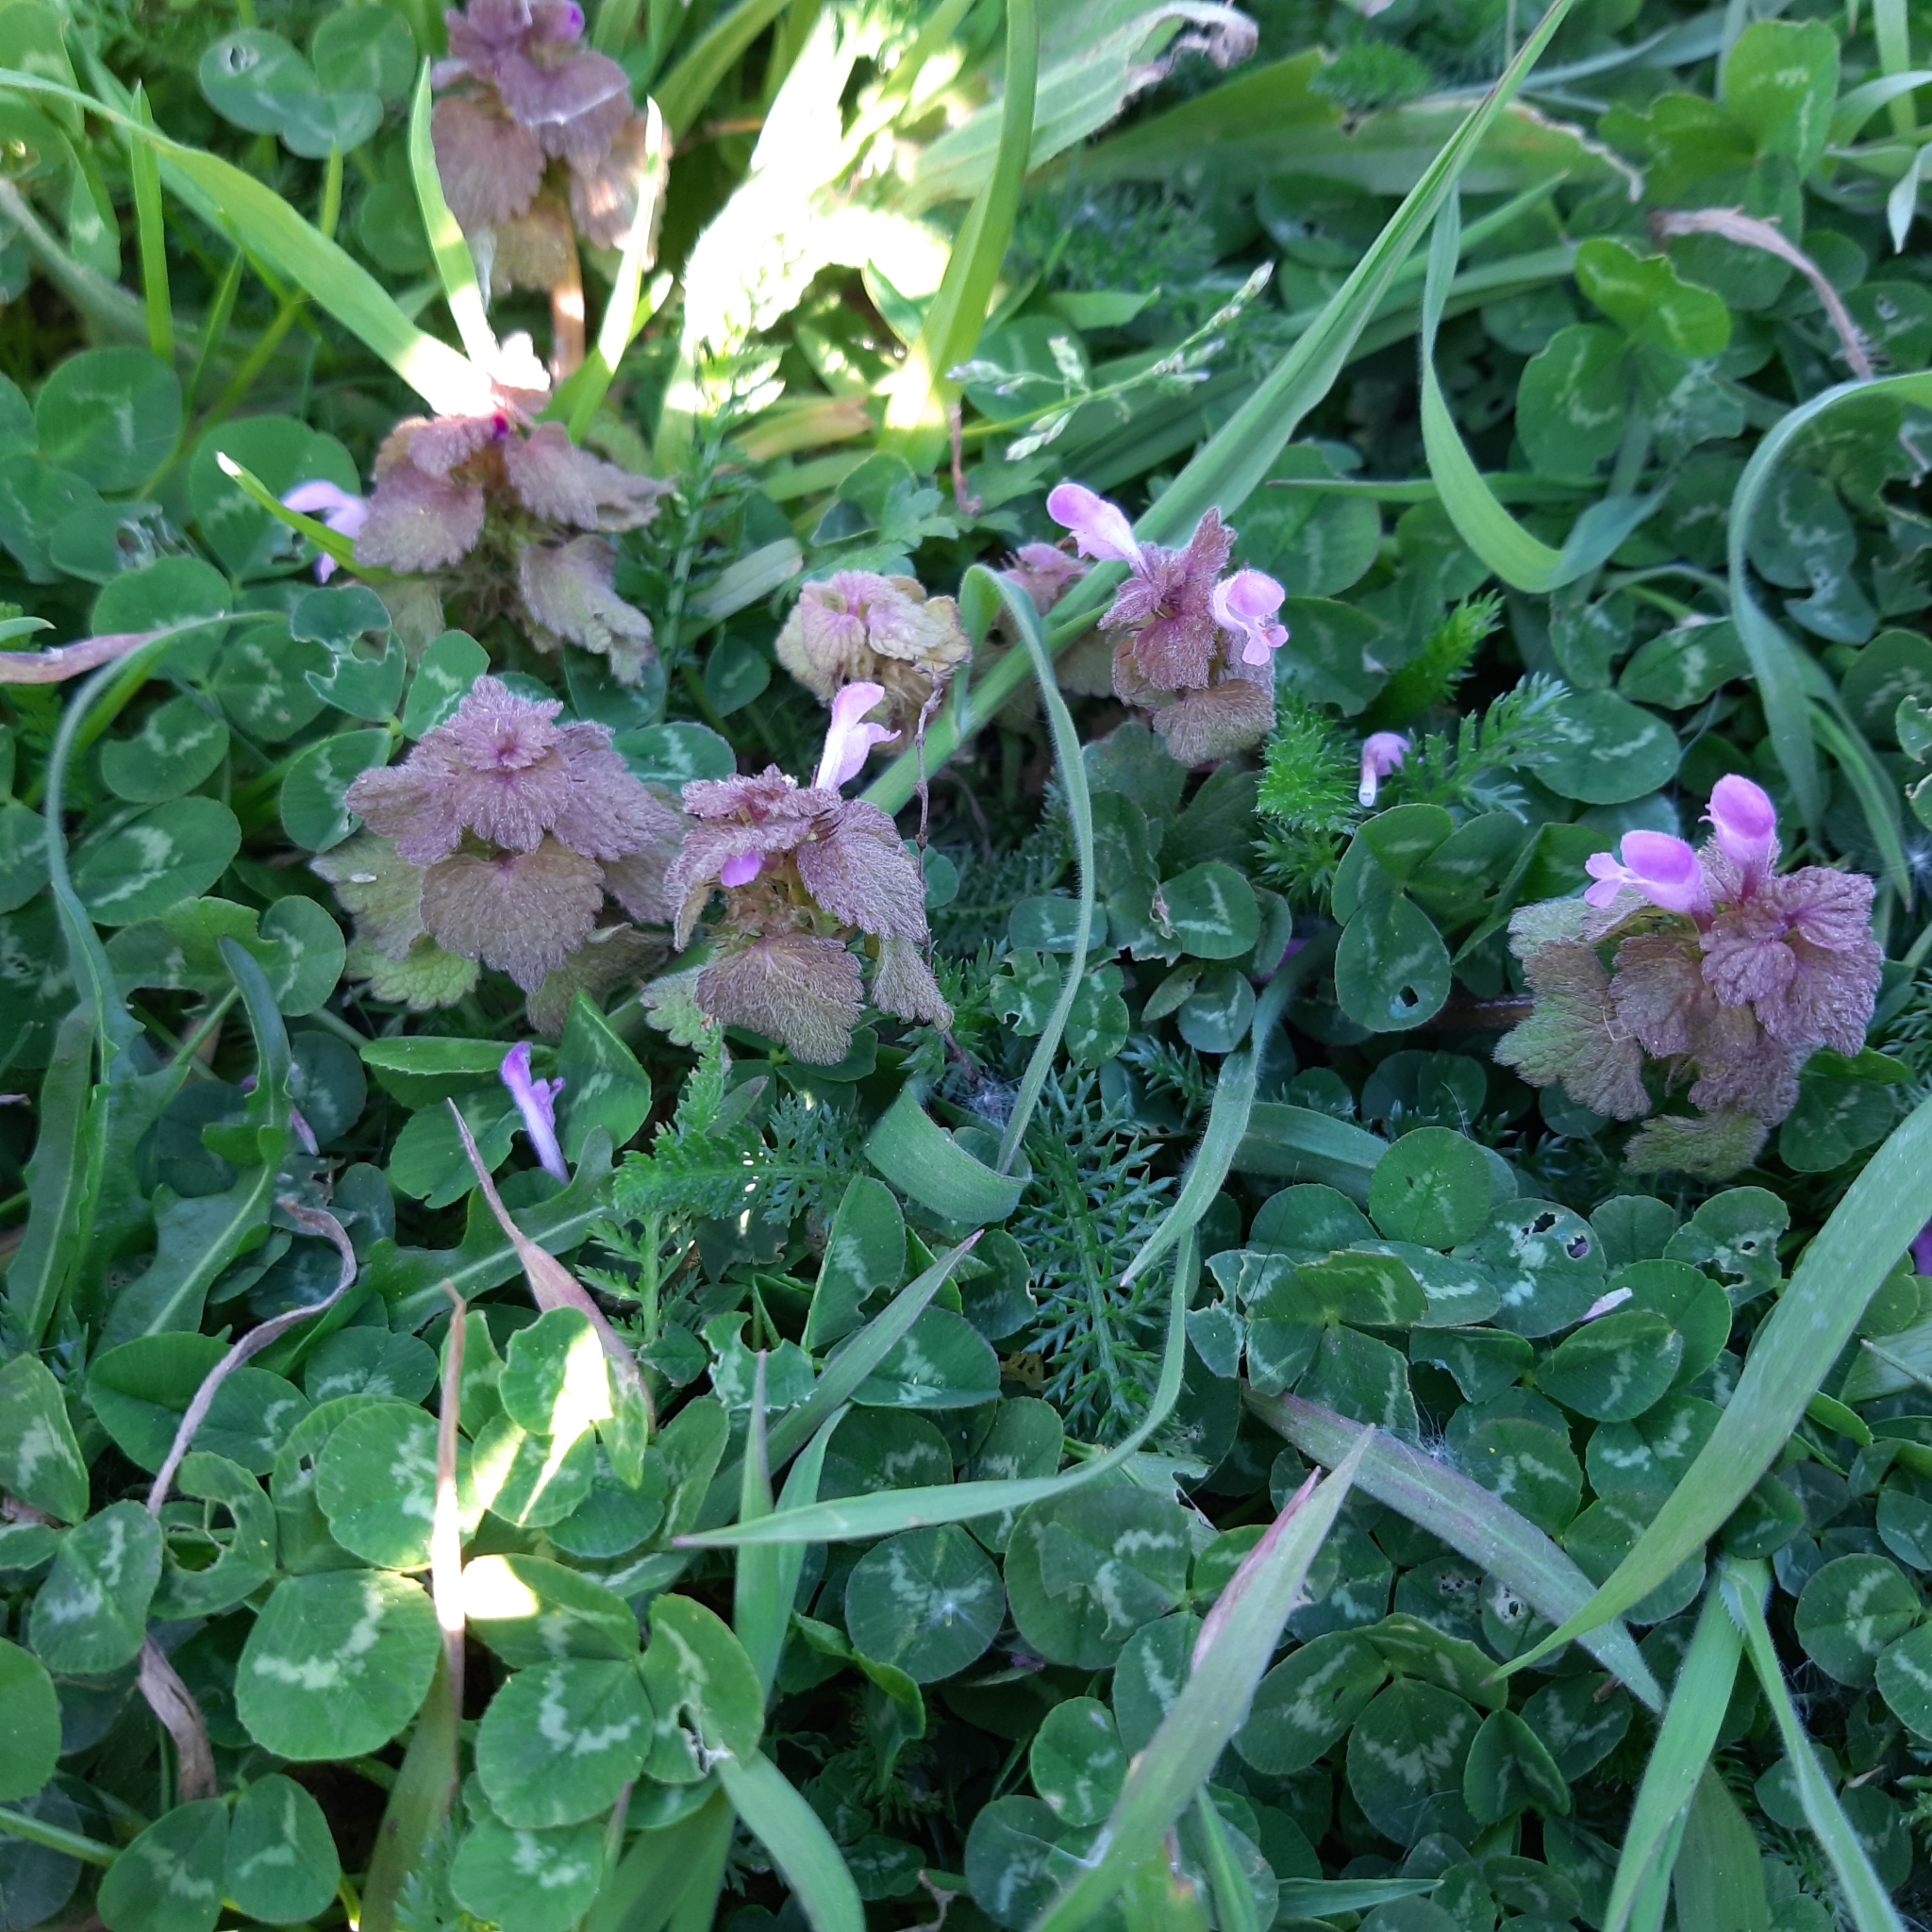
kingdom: Plantae
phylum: Tracheophyta
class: Magnoliopsida
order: Lamiales
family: Lamiaceae
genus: Lamium
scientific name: Lamium purpureum
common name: Red dead-nettle
